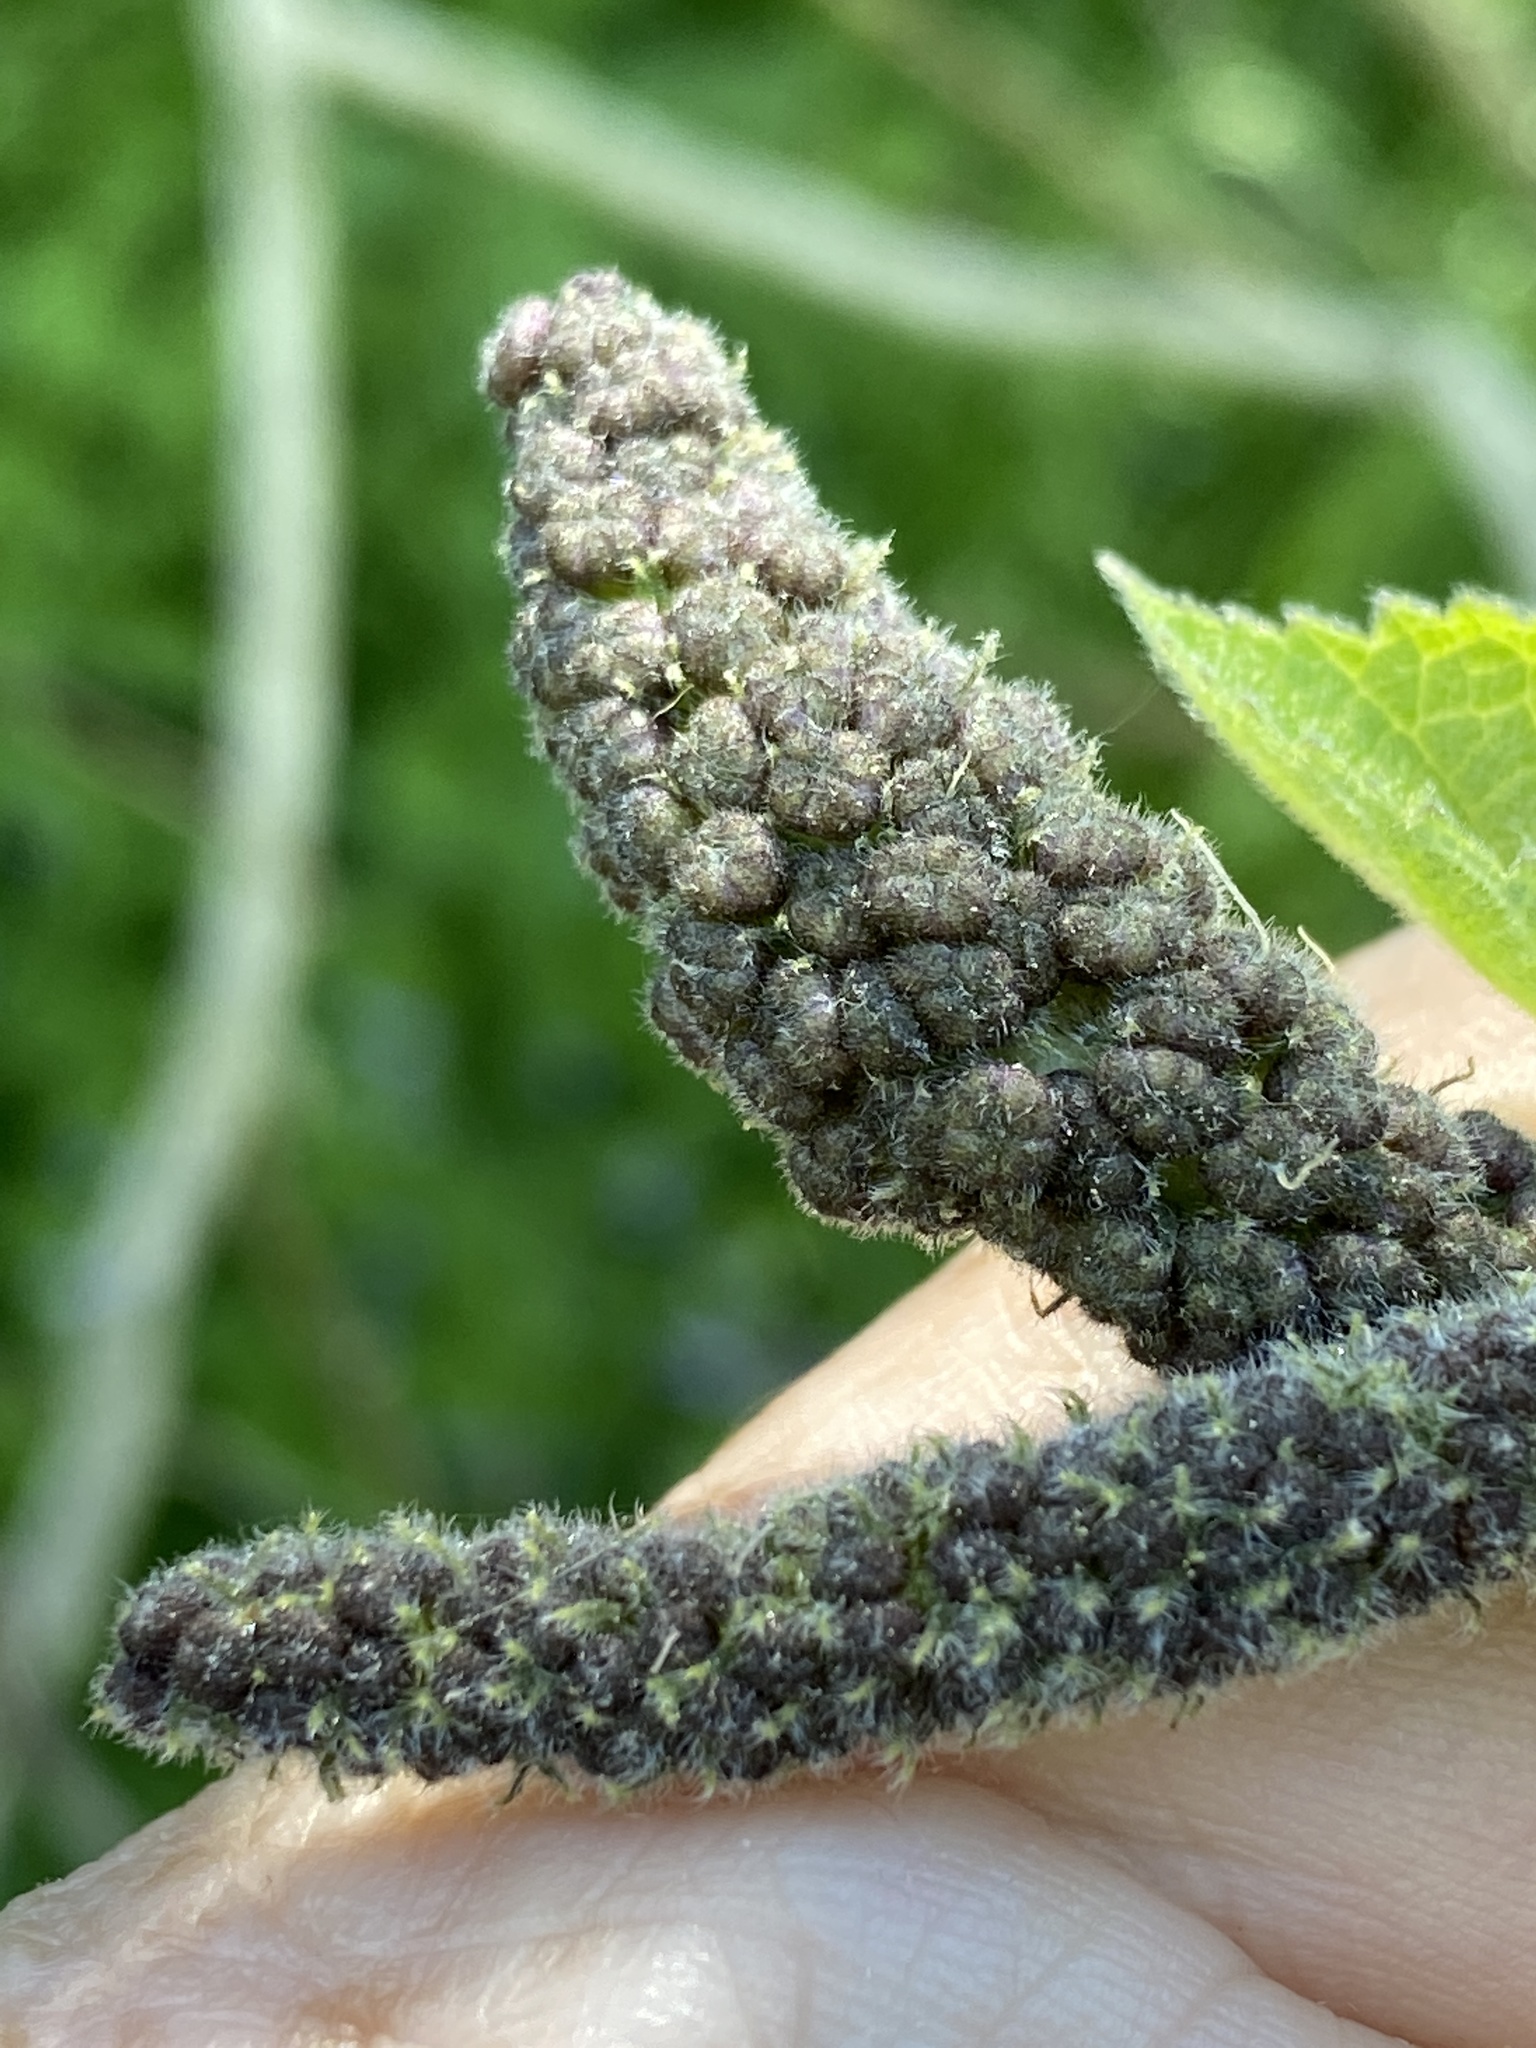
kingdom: Plantae
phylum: Tracheophyta
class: Magnoliopsida
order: Rosales
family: Moraceae
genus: Broussonetia
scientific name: Broussonetia papyrifera
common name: Paper mulberry
